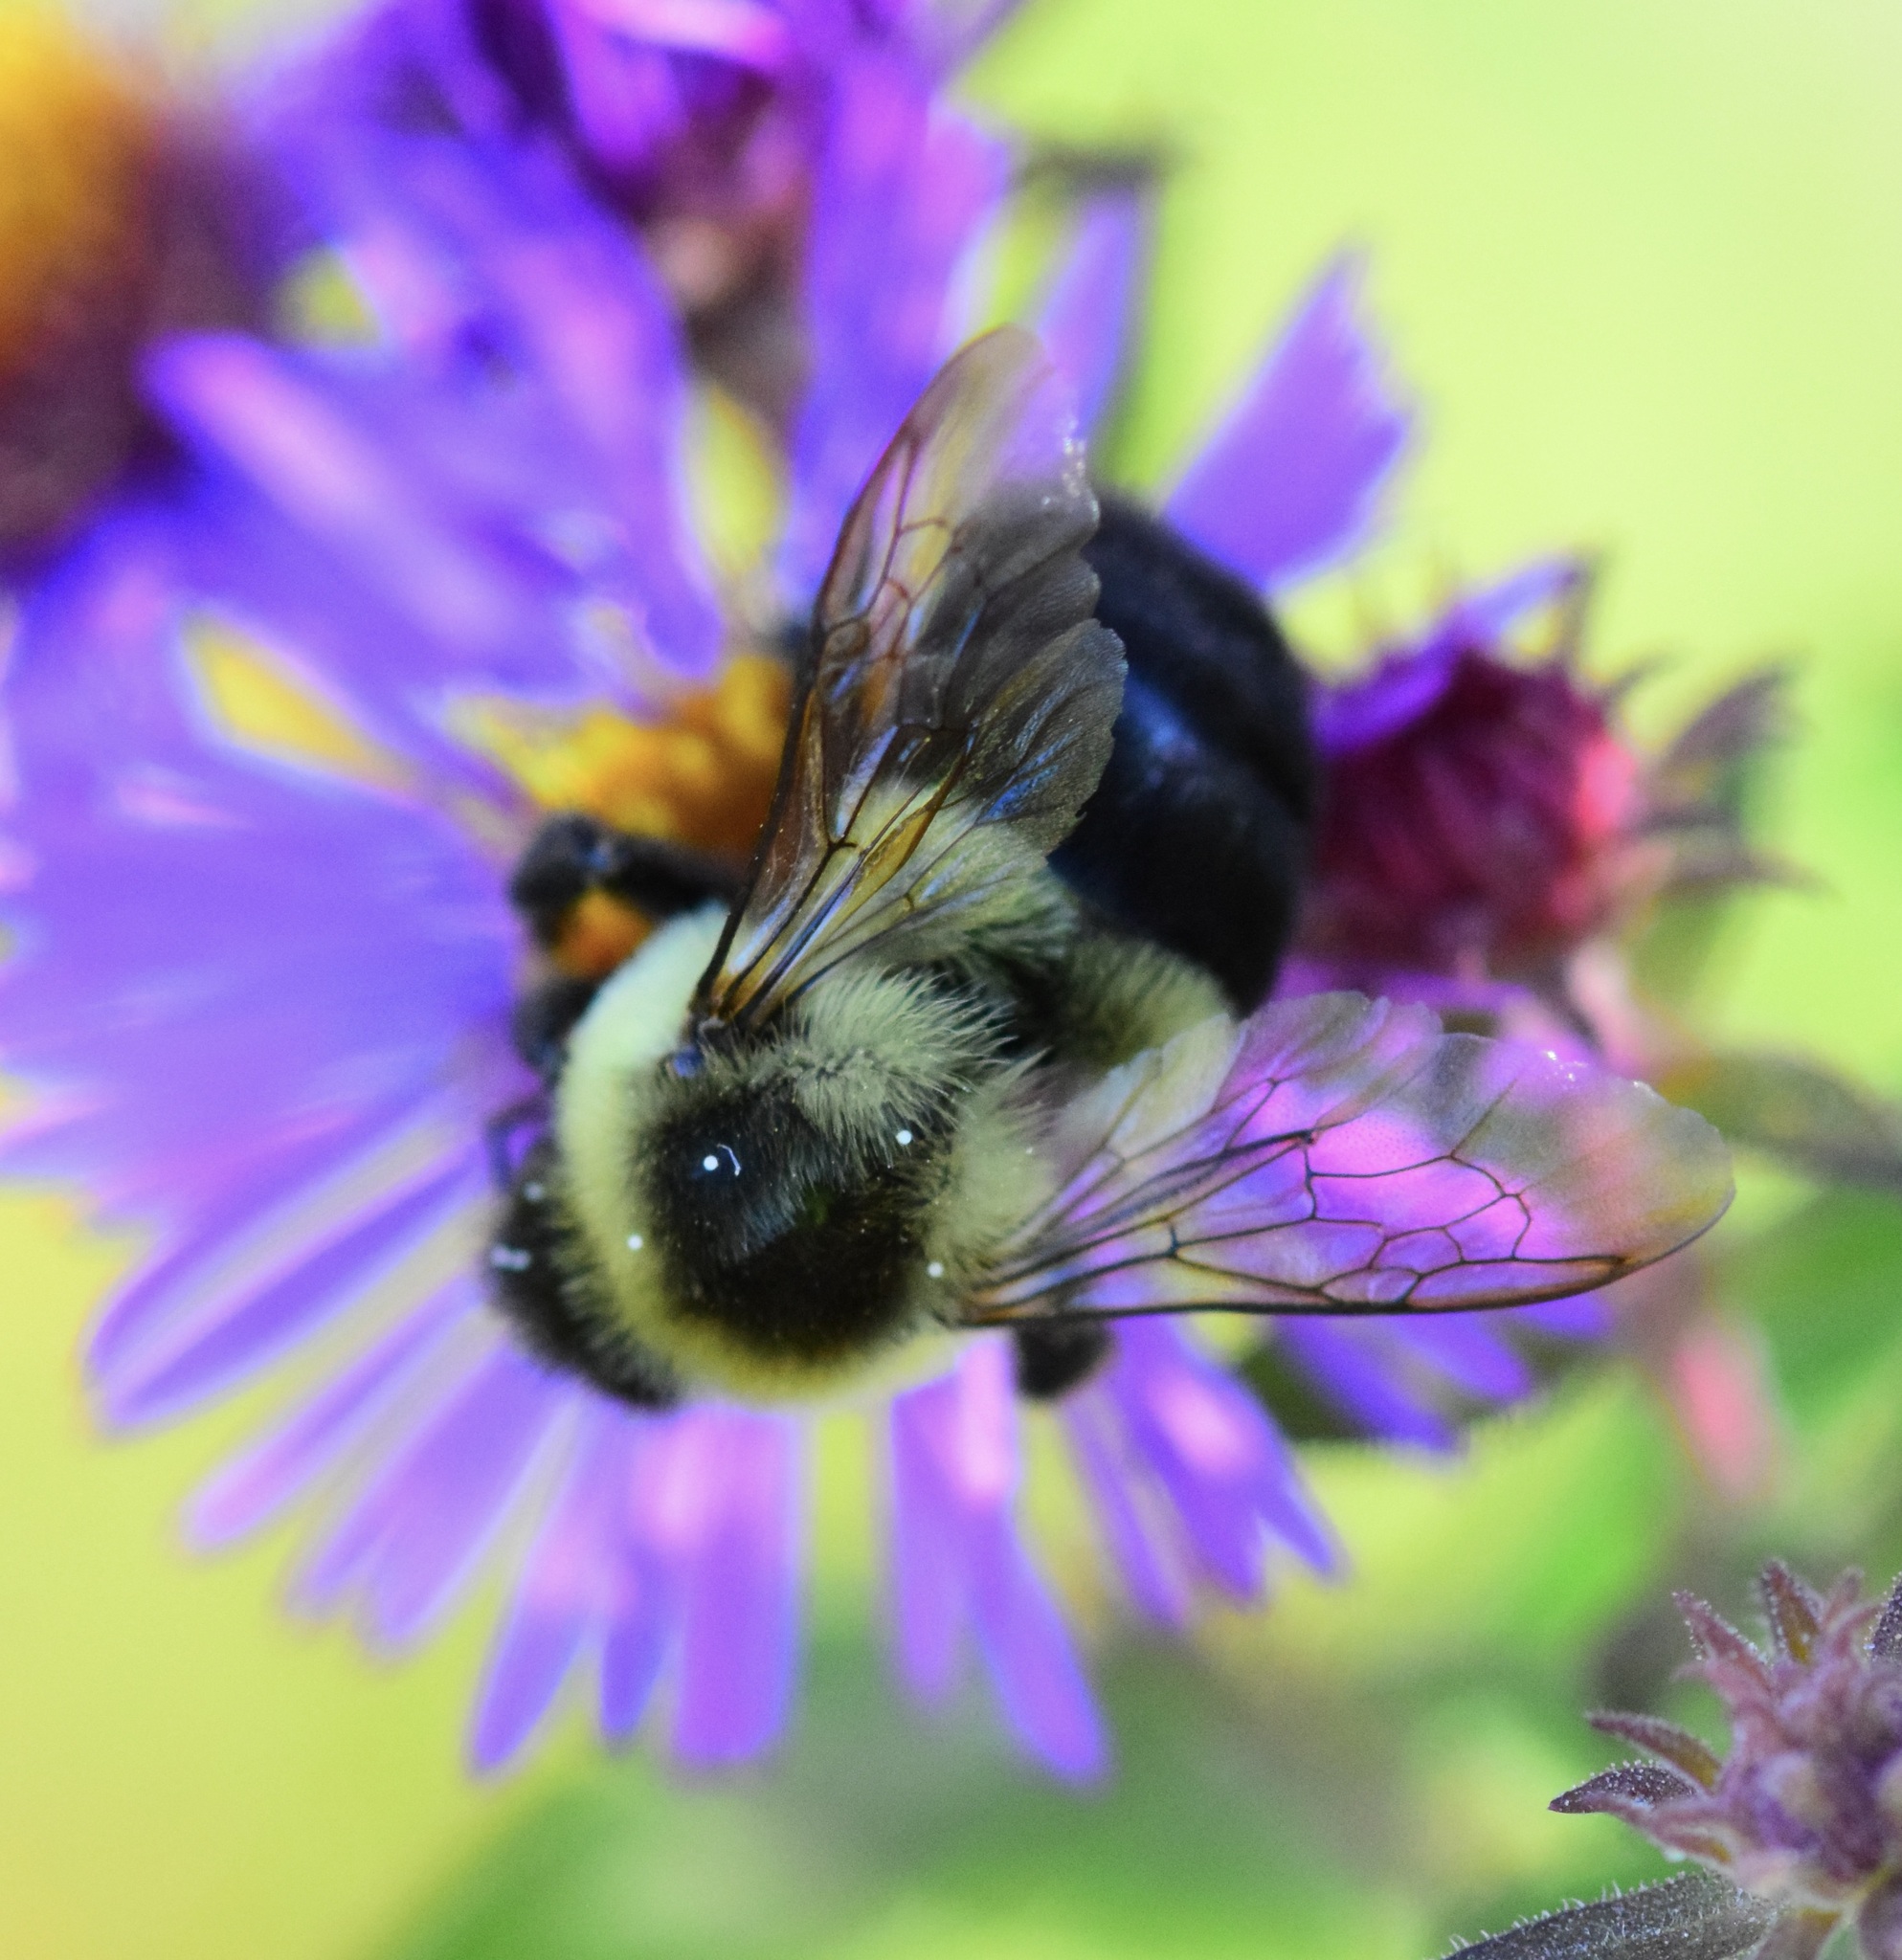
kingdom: Animalia
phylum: Arthropoda
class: Insecta
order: Hymenoptera
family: Apidae
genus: Bombus
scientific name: Bombus impatiens
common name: Common eastern bumble bee
